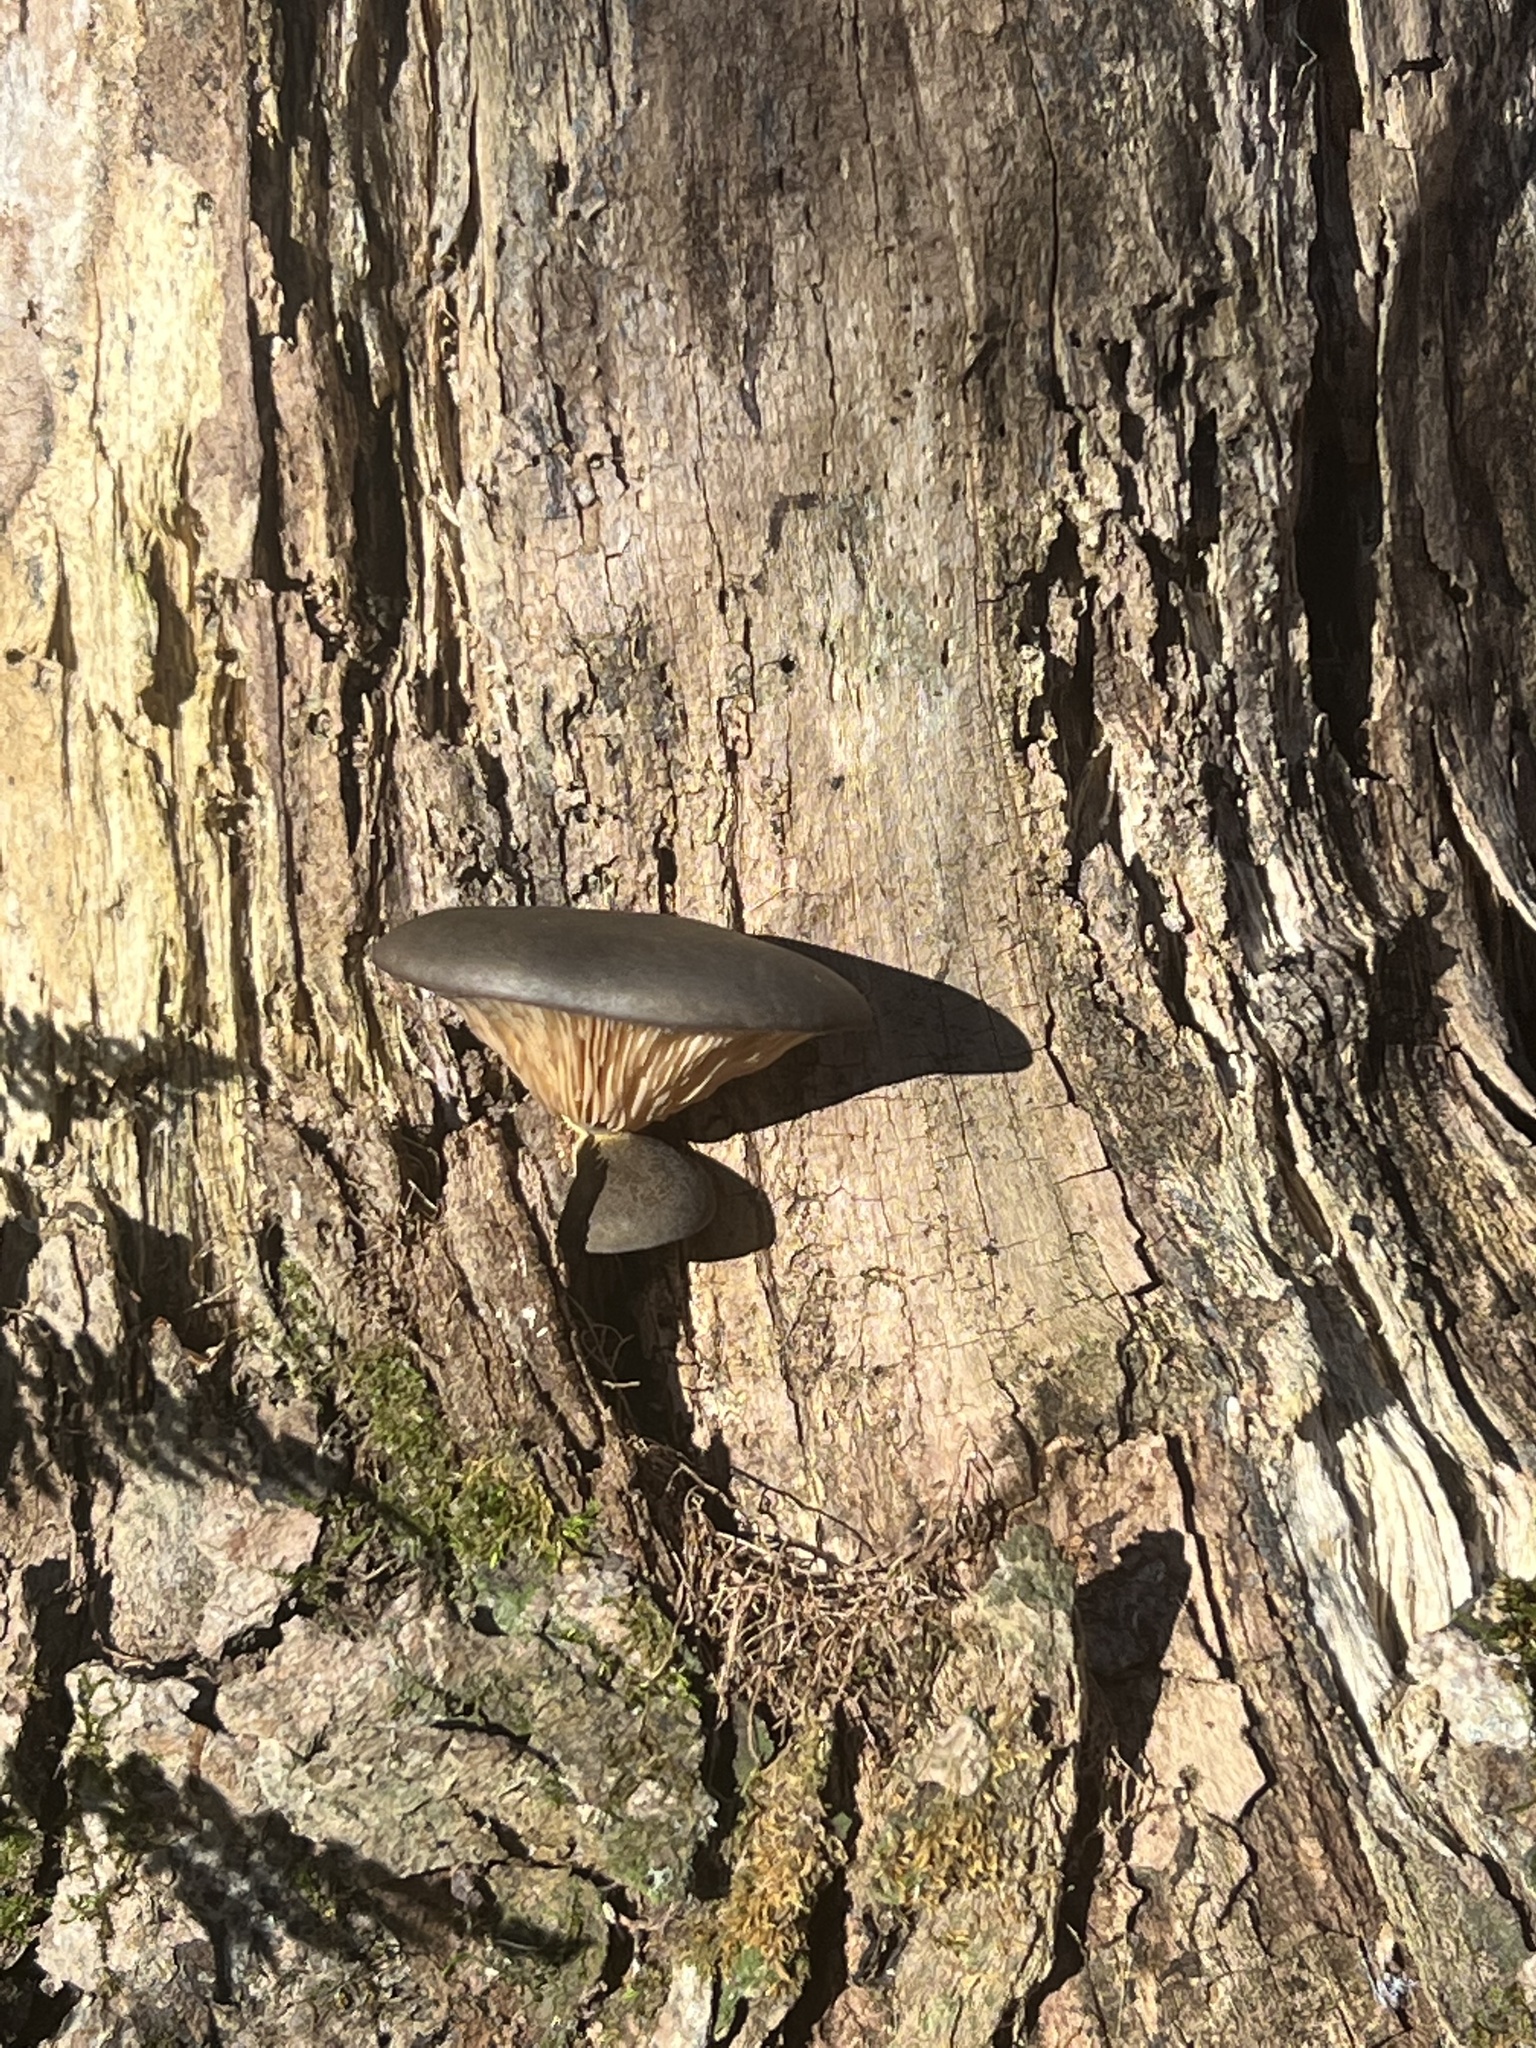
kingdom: Fungi
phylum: Basidiomycota
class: Agaricomycetes
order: Agaricales
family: Sarcomyxaceae
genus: Sarcomyxa
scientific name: Sarcomyxa serotina
